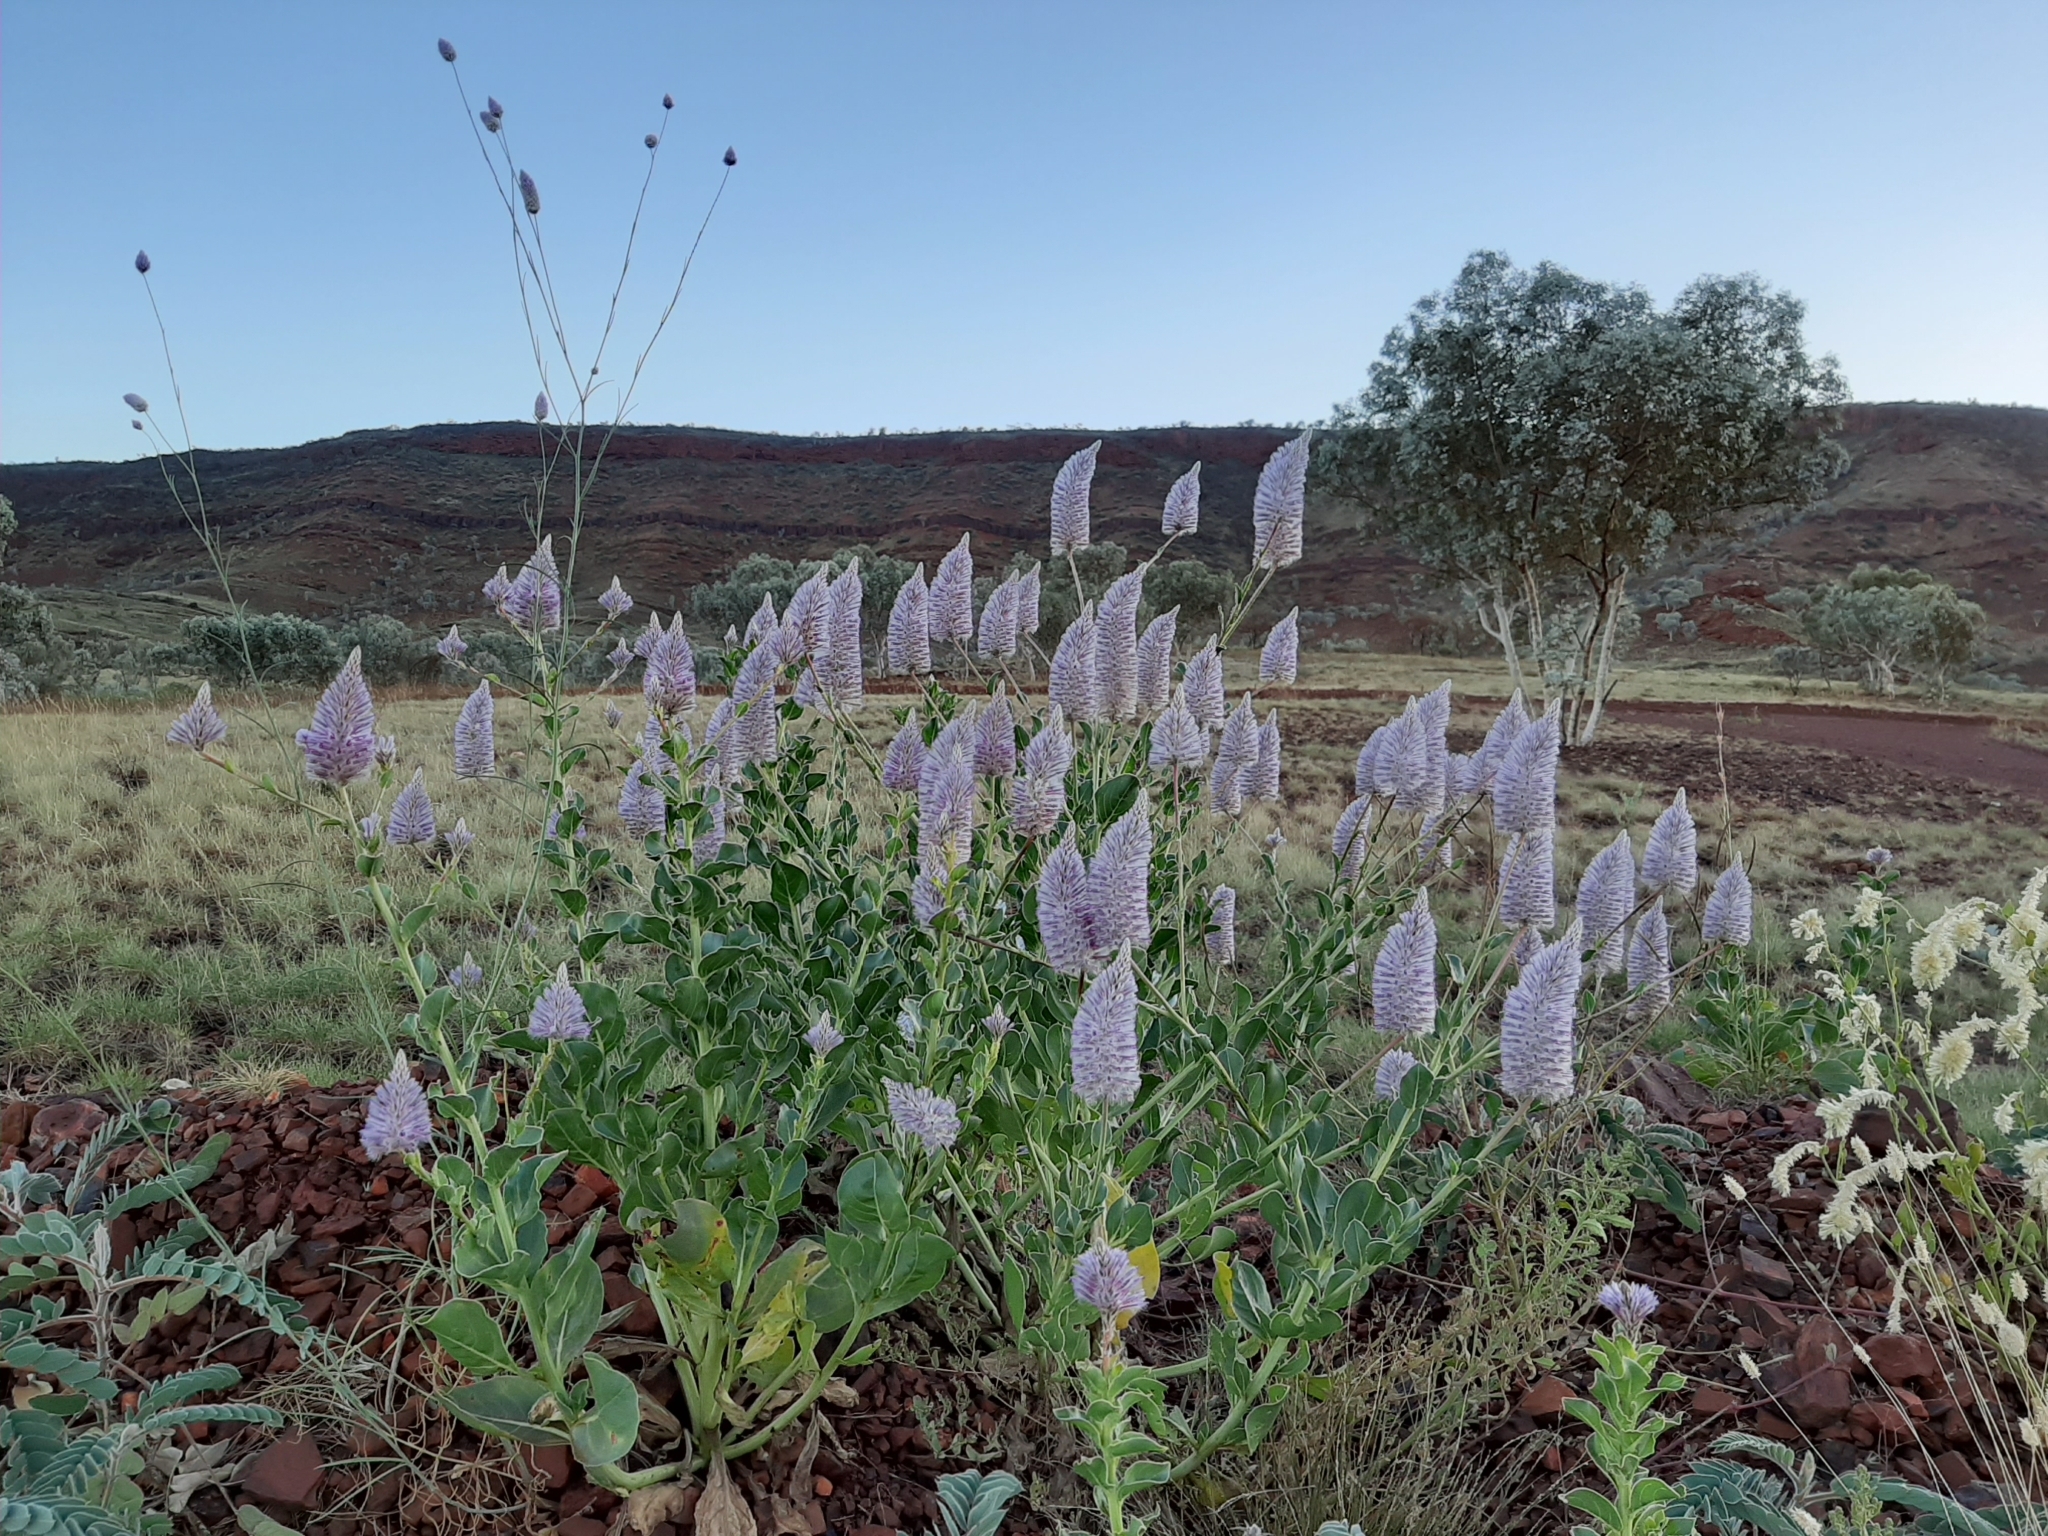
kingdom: Plantae
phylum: Tracheophyta
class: Magnoliopsida
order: Caryophyllales
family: Amaranthaceae
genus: Ptilotus
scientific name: Ptilotus exaltatus
